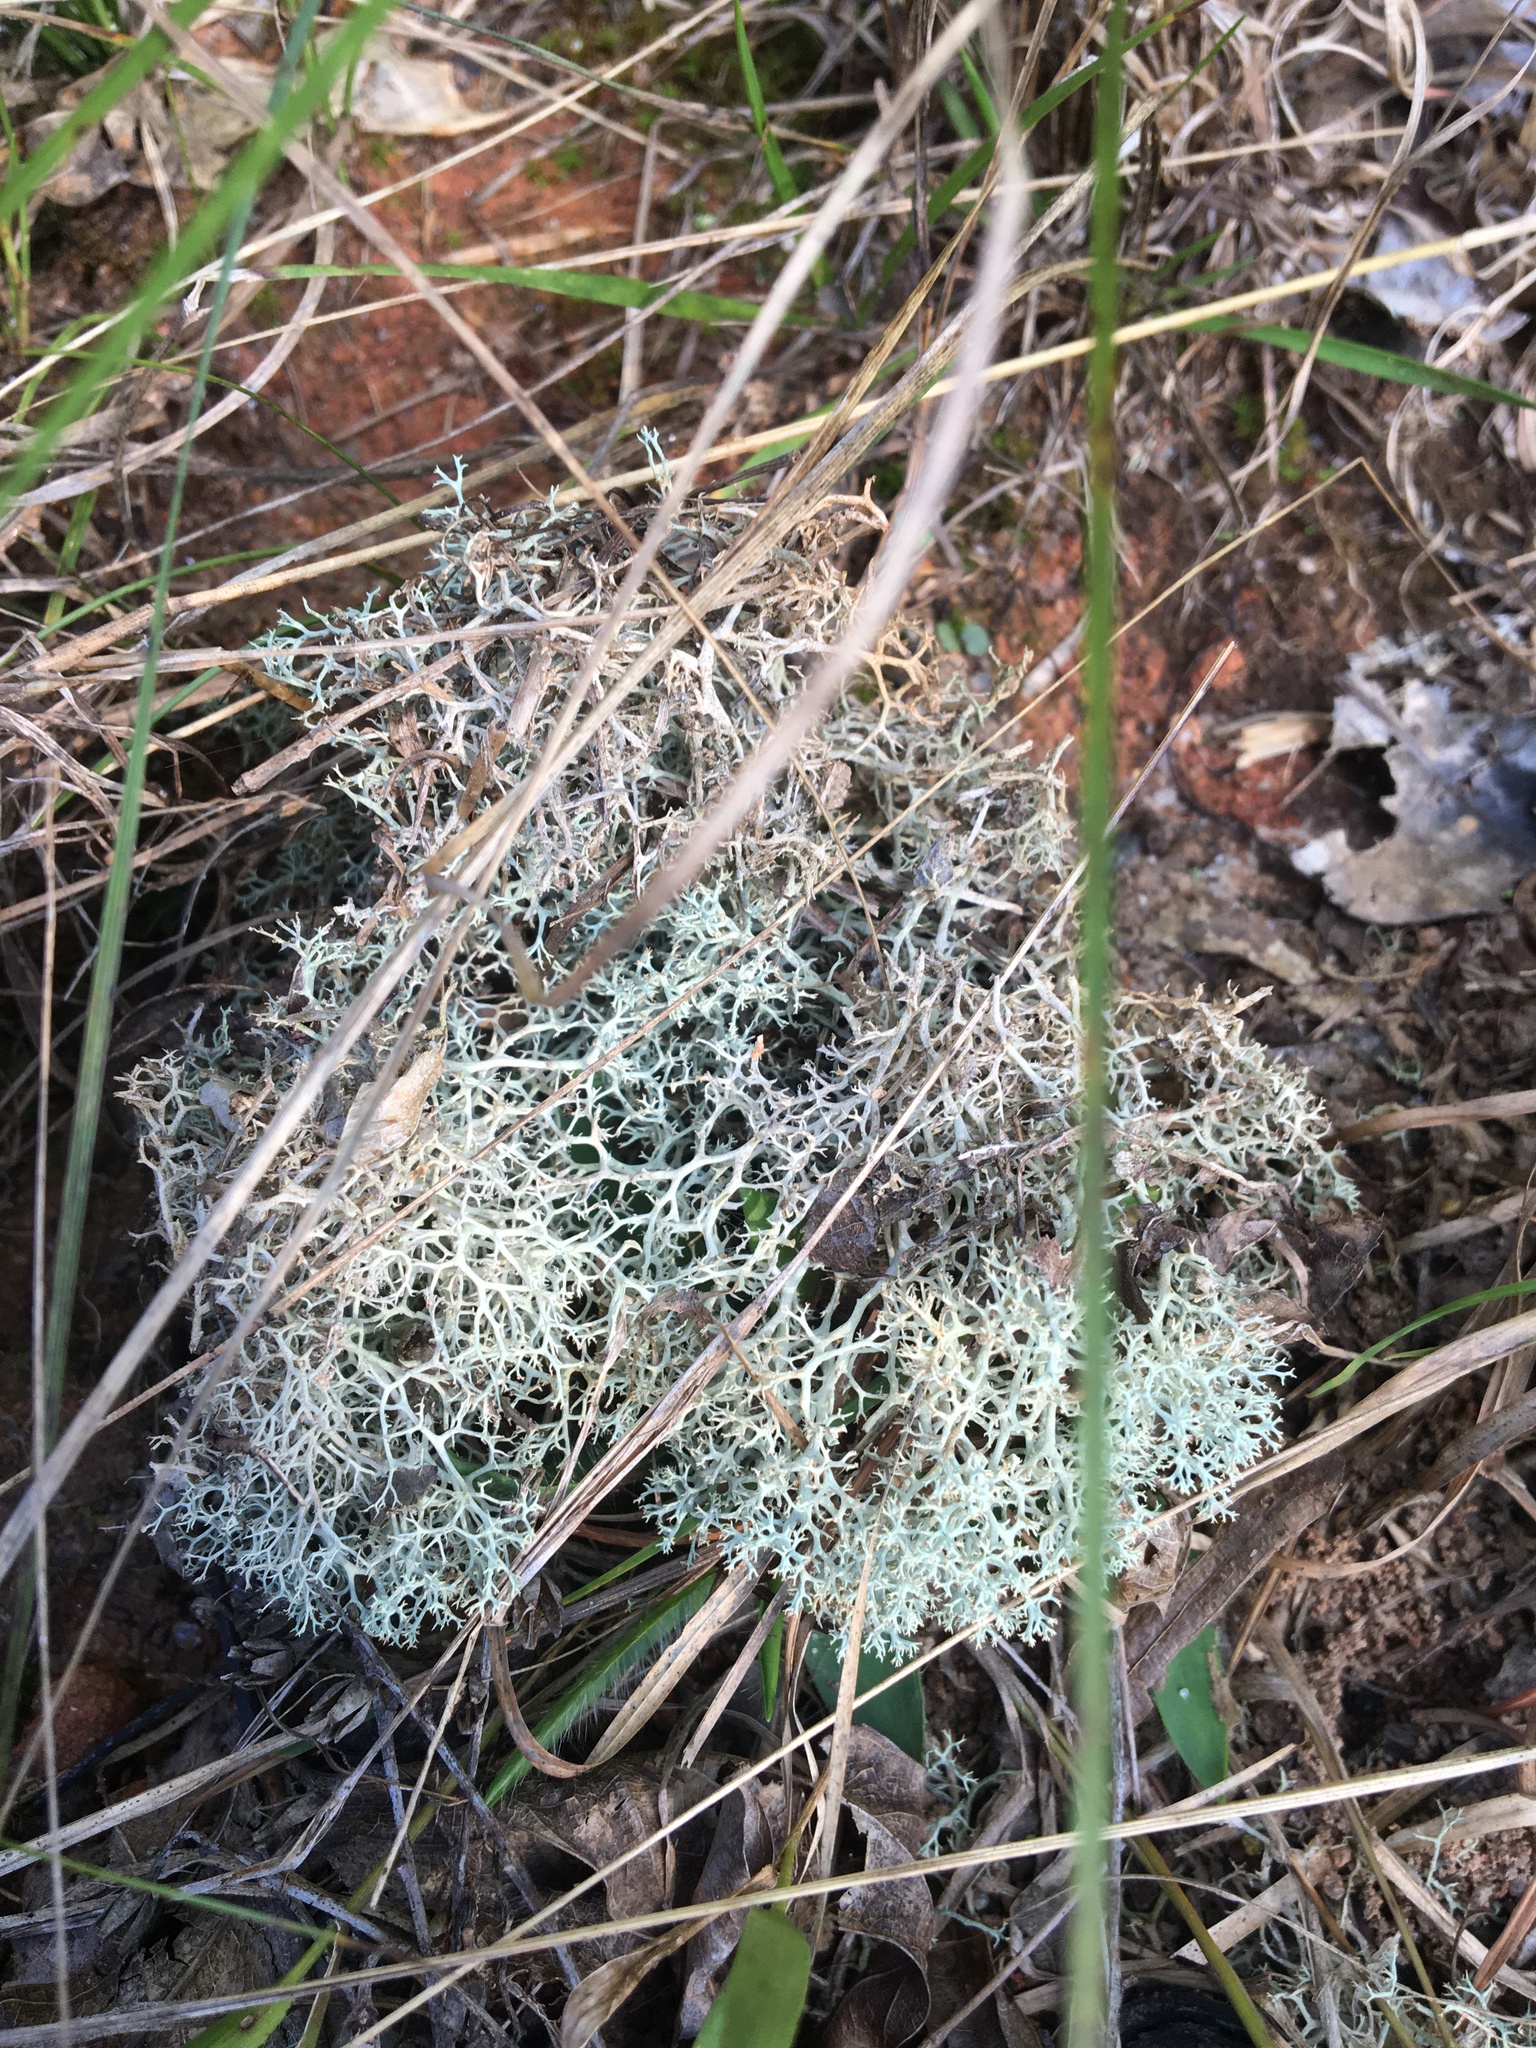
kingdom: Fungi
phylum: Ascomycota
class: Lecanoromycetes
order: Lecanorales
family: Cladoniaceae
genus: Cladonia
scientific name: Cladonia subtenuis
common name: Dixie reindeer lichen
